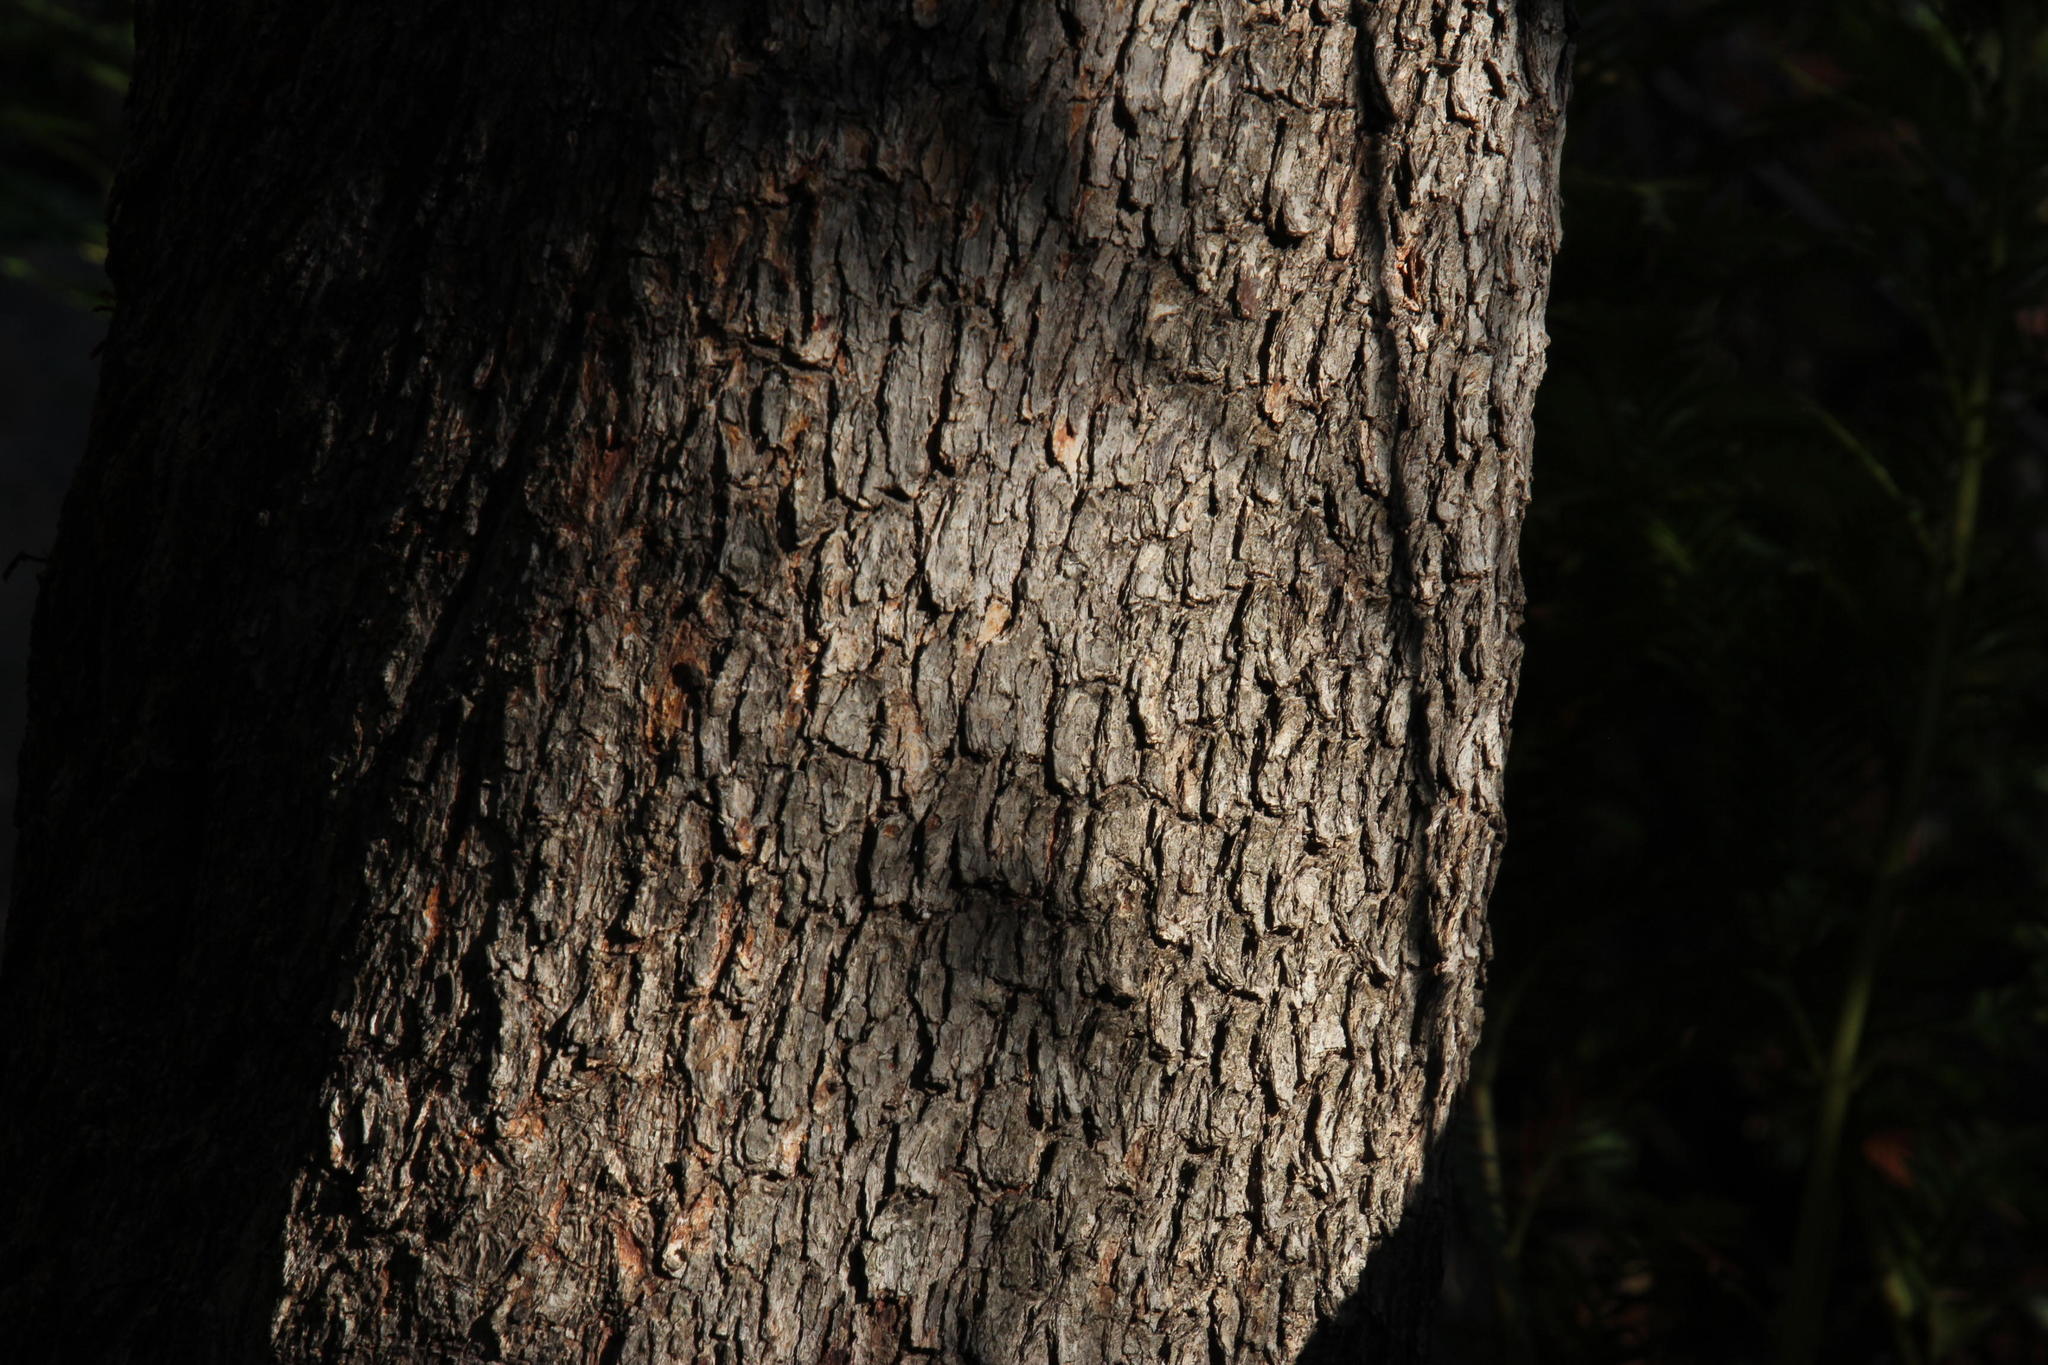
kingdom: Plantae
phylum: Tracheophyta
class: Magnoliopsida
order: Myrtales
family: Myrtaceae
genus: Callistemon
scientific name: Callistemon lanceolatus
